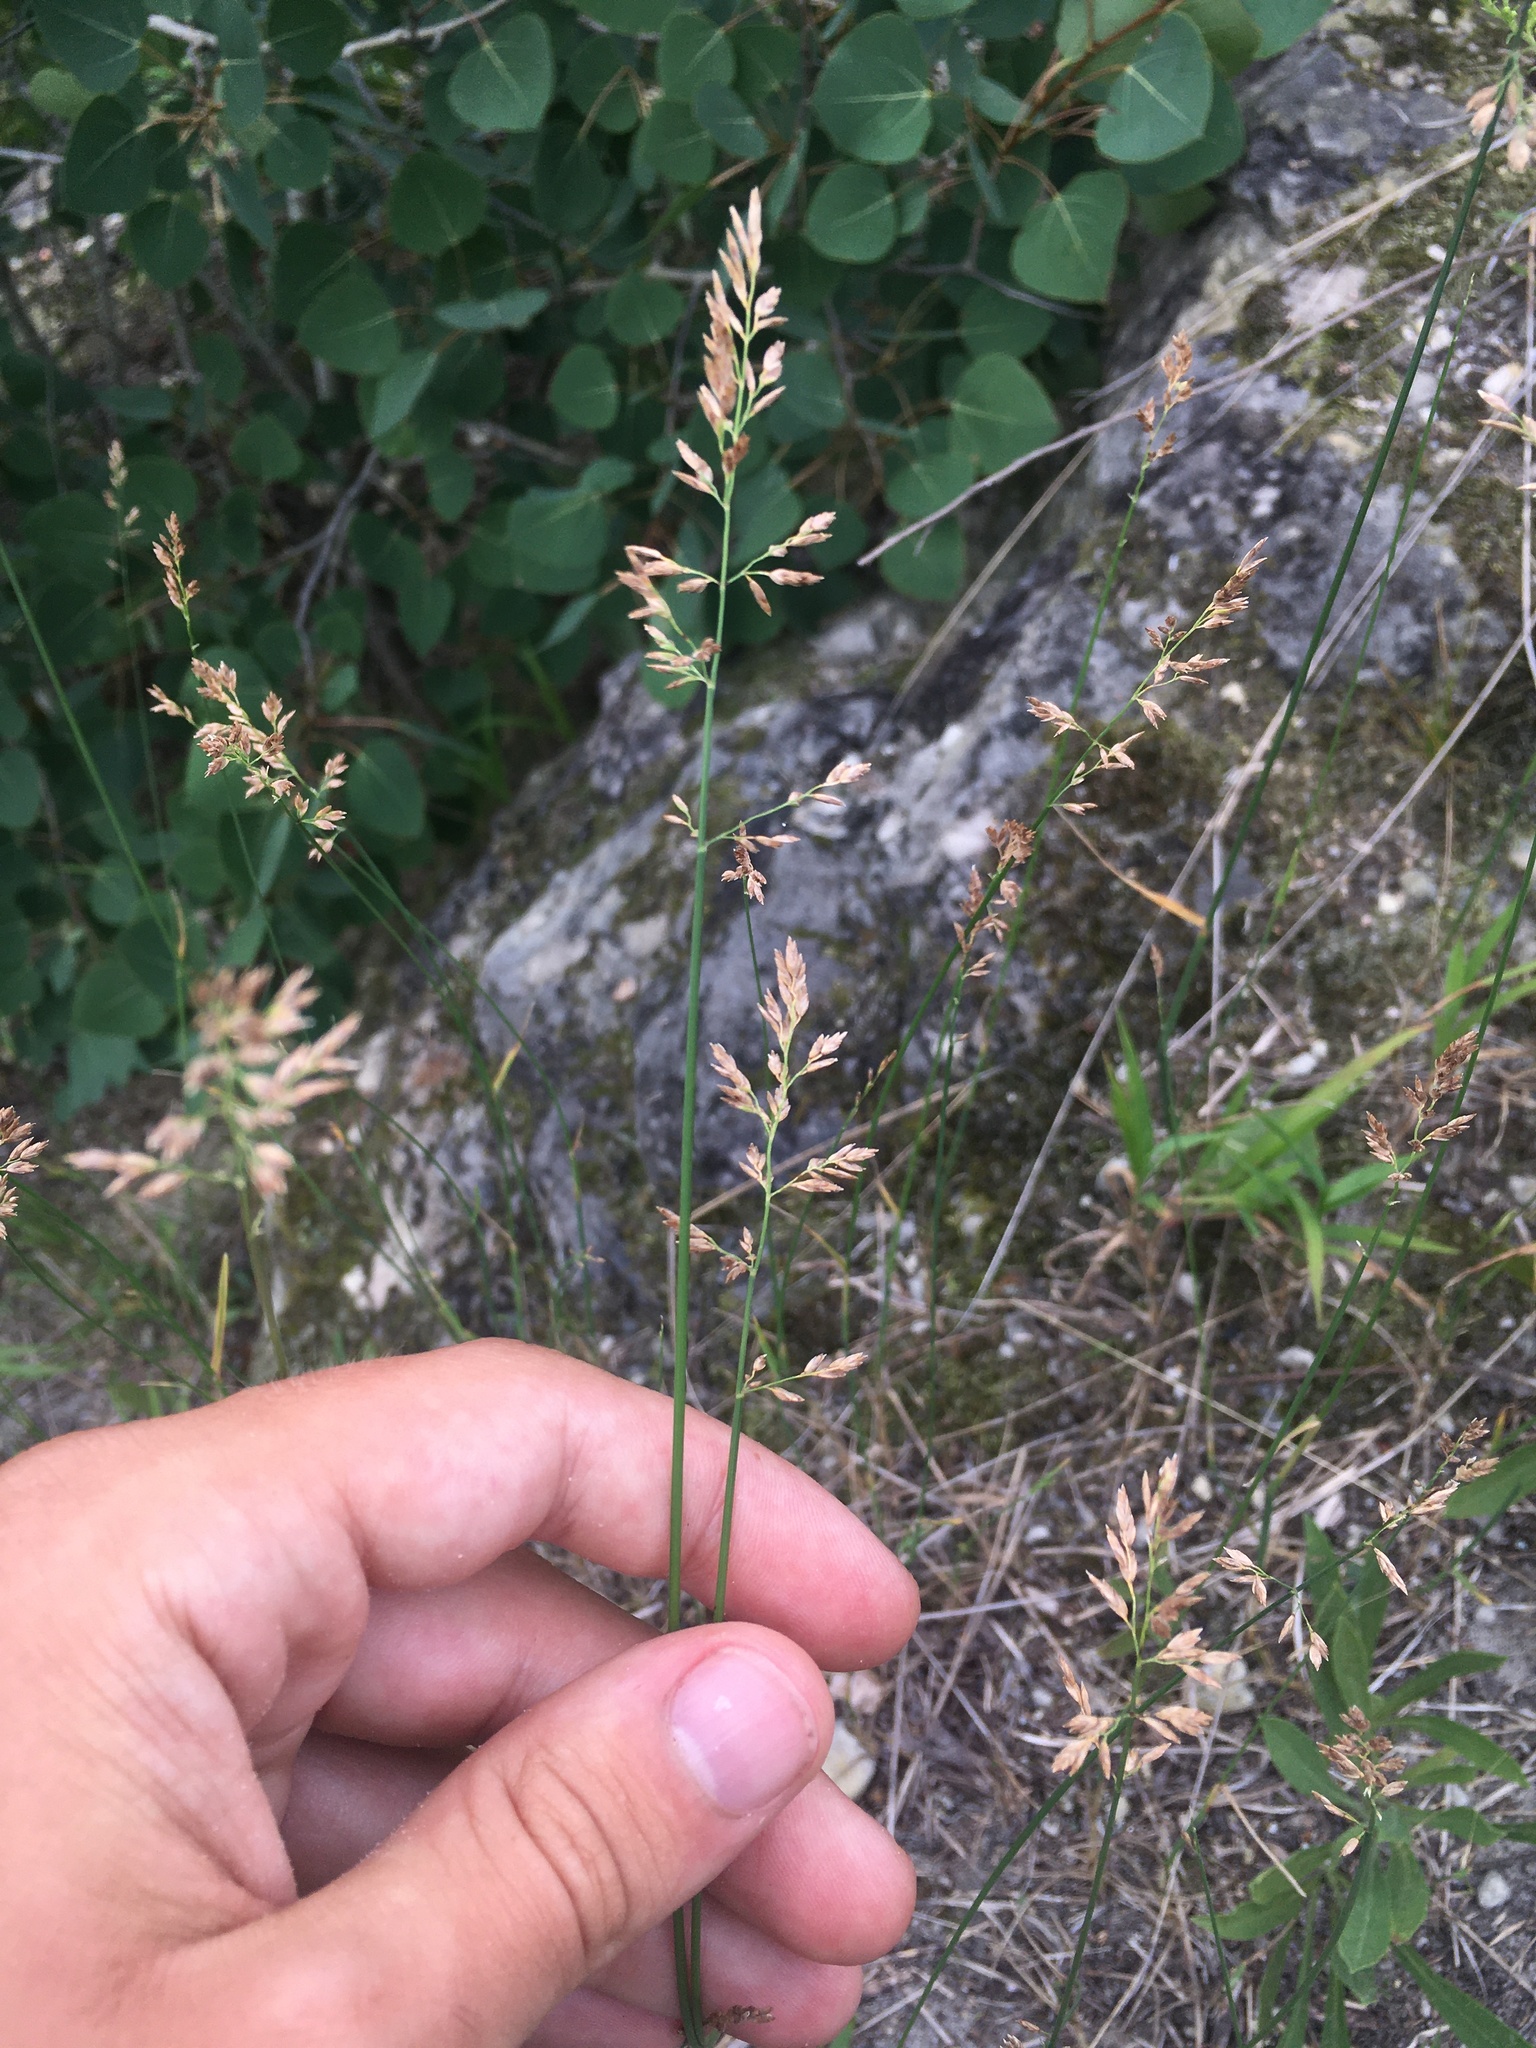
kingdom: Plantae
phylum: Tracheophyta
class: Liliopsida
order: Poales
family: Poaceae
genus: Poa
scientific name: Poa compressa
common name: Canada bluegrass
